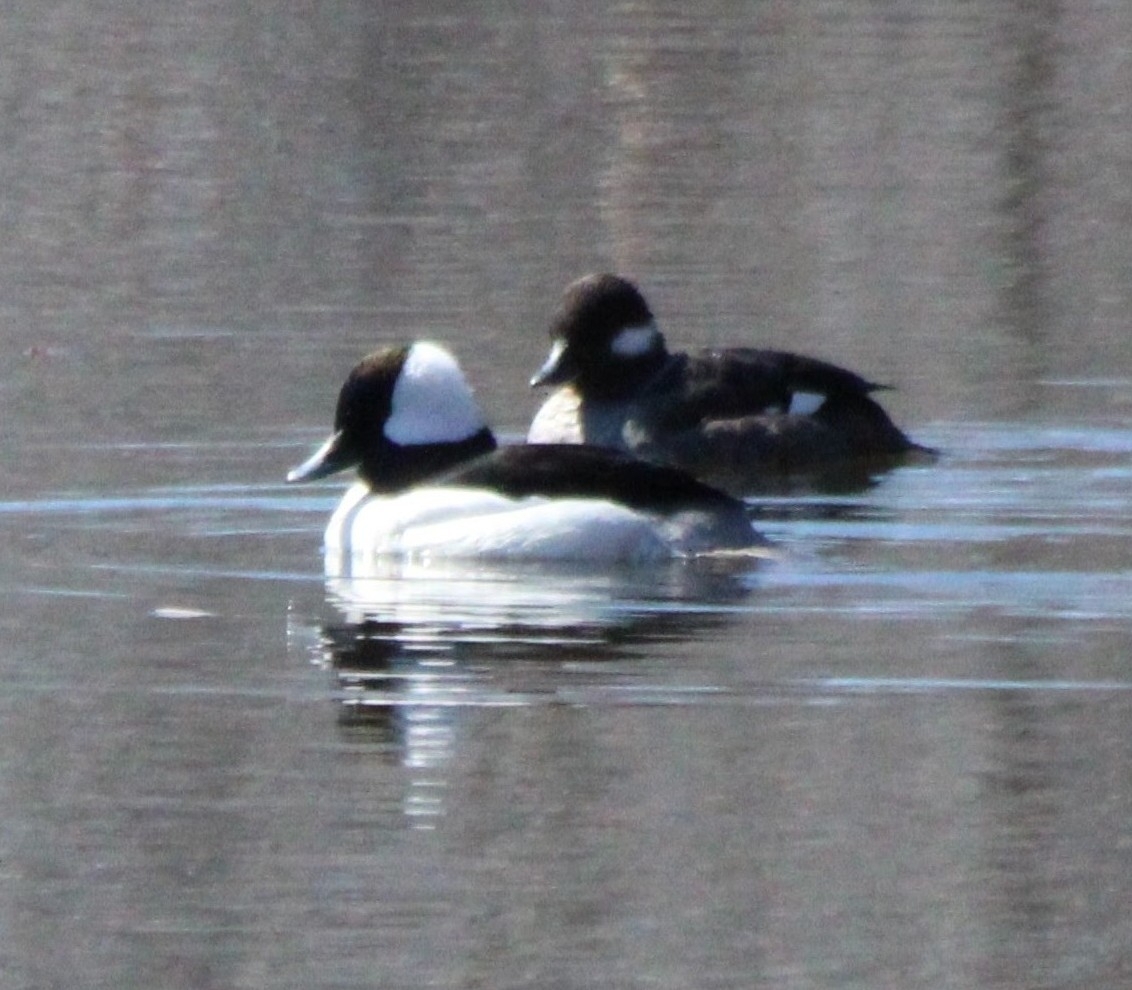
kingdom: Animalia
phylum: Chordata
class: Aves
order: Anseriformes
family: Anatidae
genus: Bucephala
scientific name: Bucephala albeola
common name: Bufflehead
